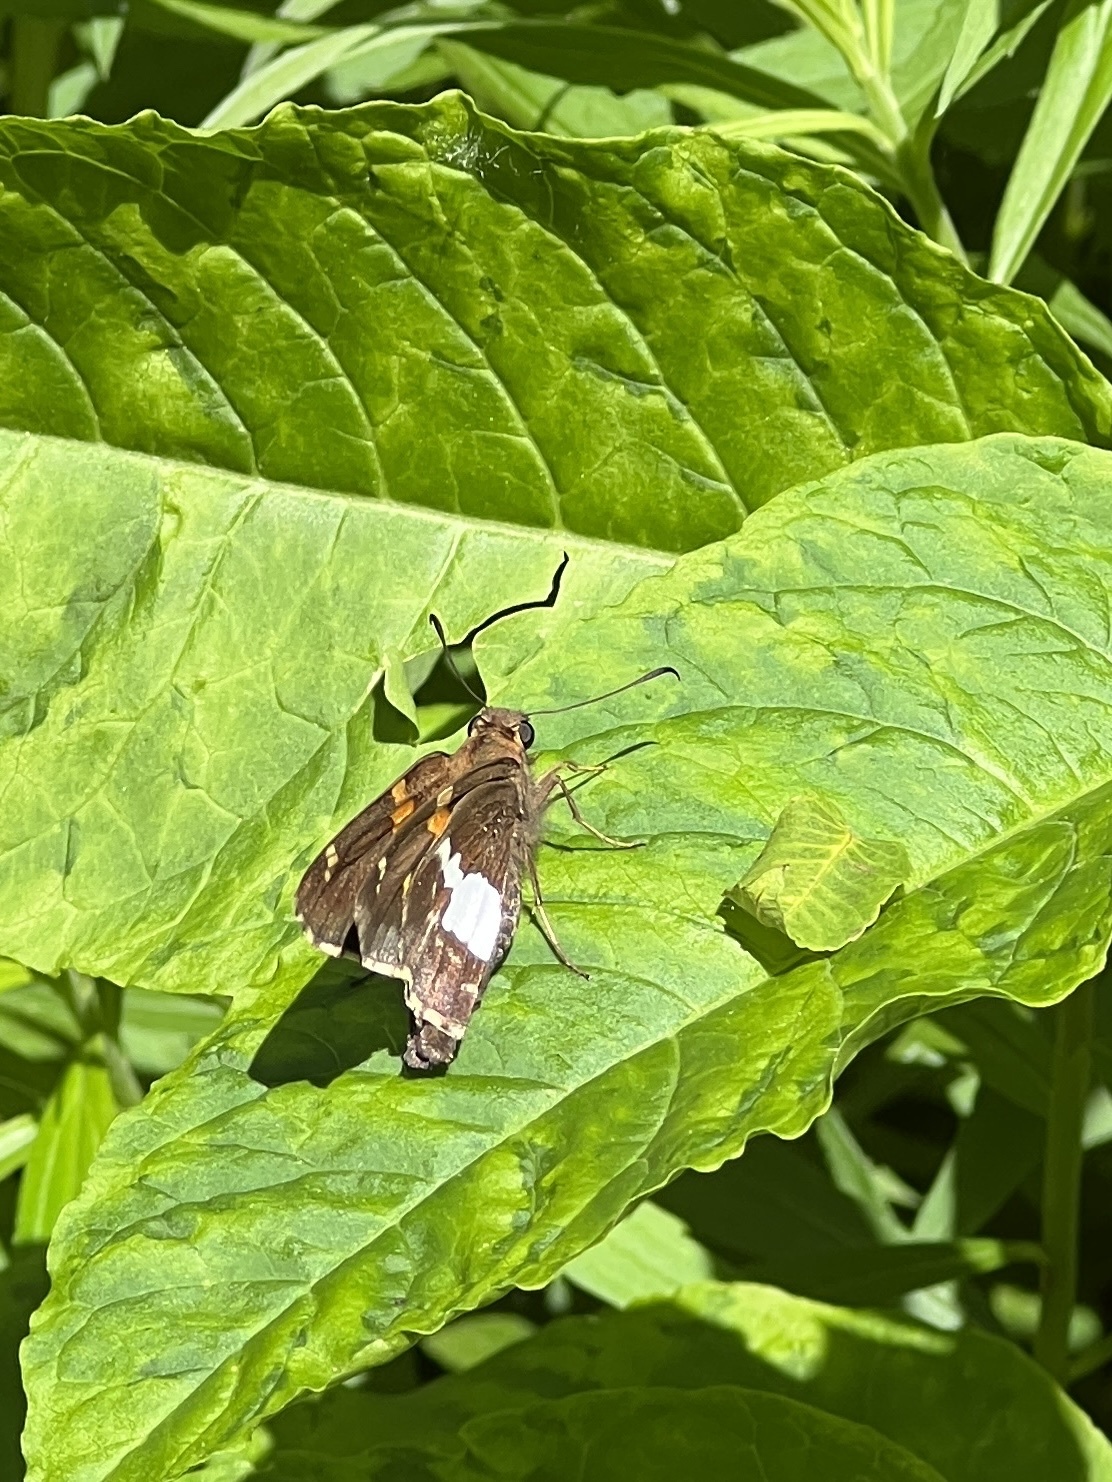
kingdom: Animalia
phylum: Arthropoda
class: Insecta
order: Lepidoptera
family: Hesperiidae
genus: Epargyreus
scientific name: Epargyreus clarus
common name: Silver-spotted skipper
